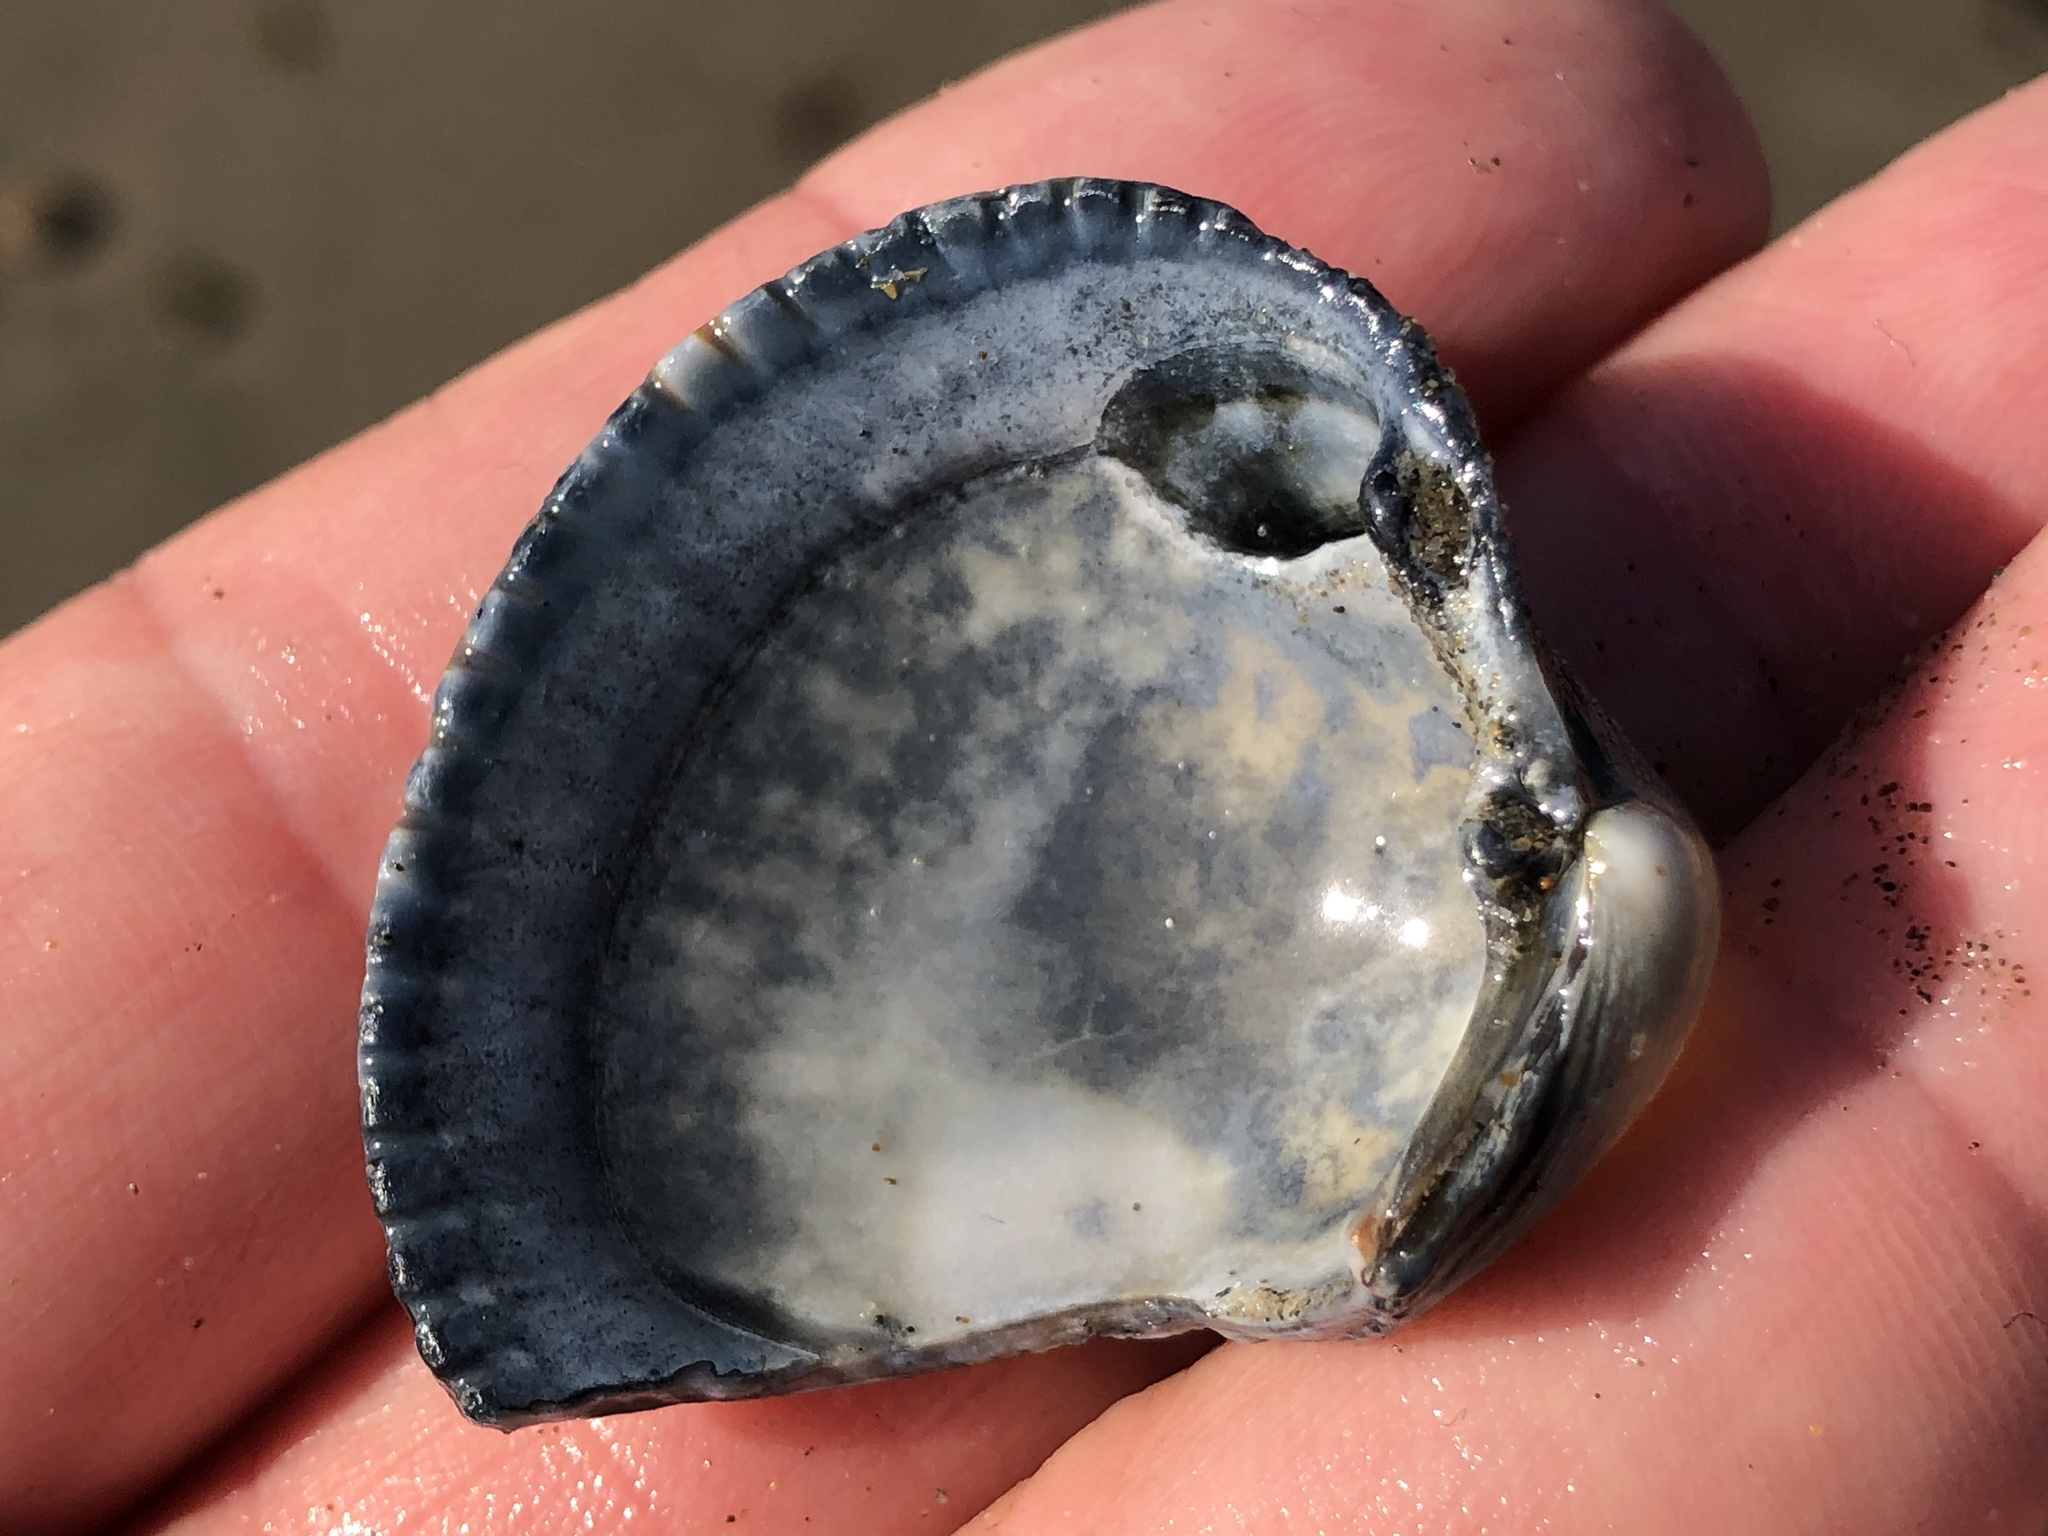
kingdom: Animalia
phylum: Mollusca
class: Bivalvia
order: Cardiida
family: Cardiidae
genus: Clinocardium
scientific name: Clinocardium nuttallii
